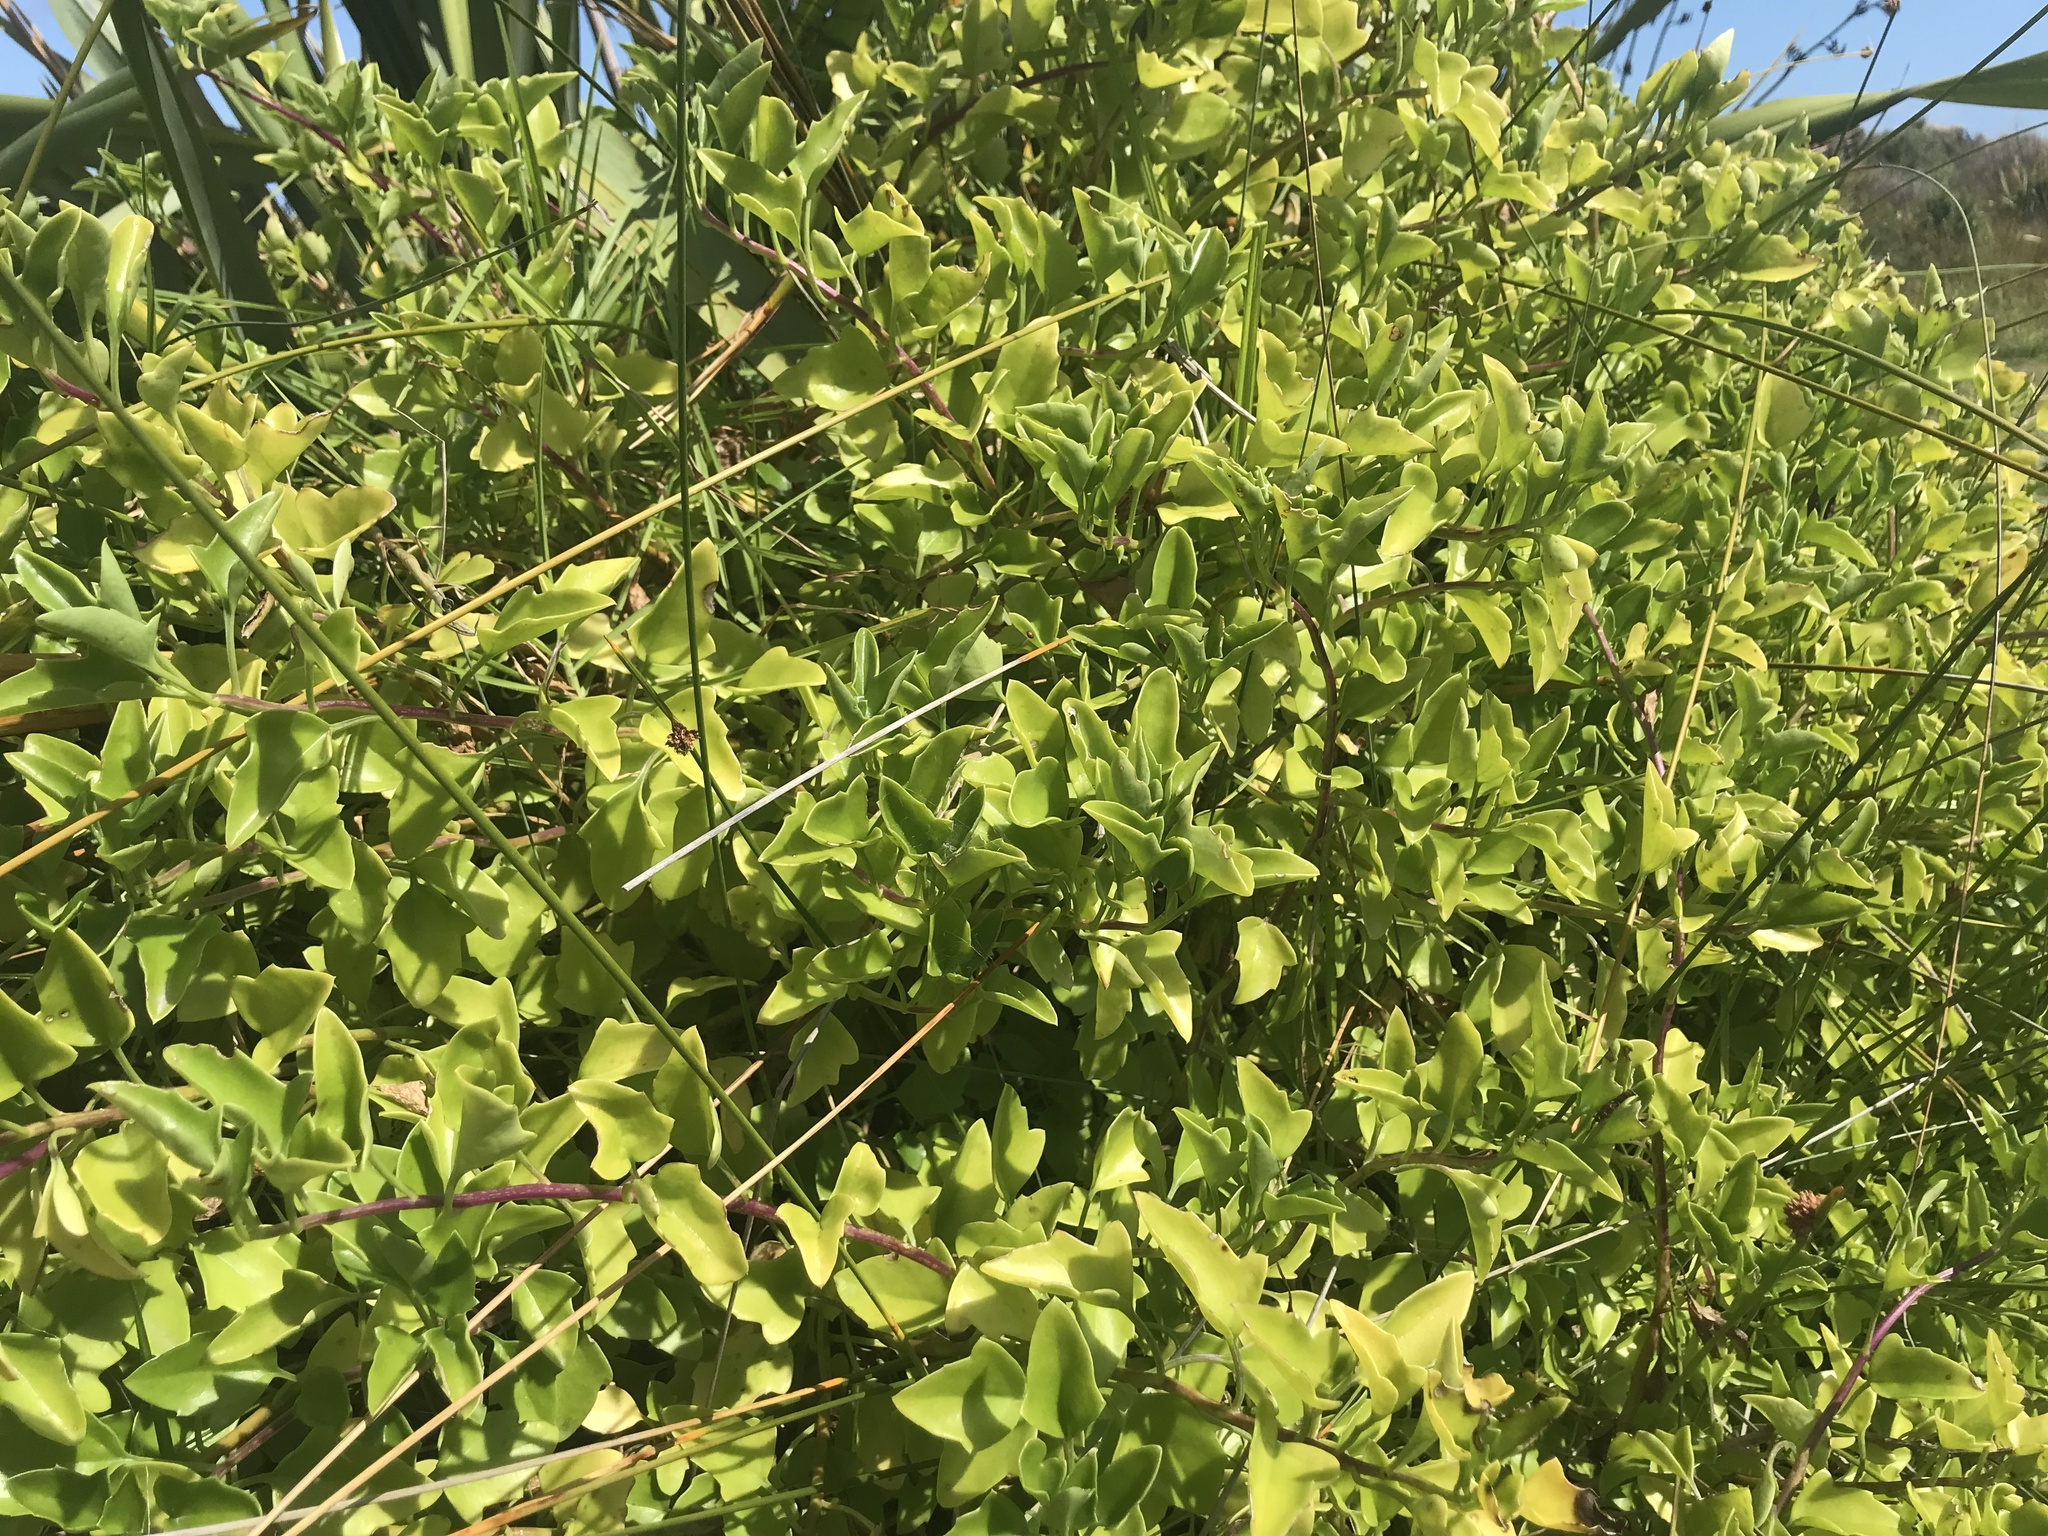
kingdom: Plantae
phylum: Tracheophyta
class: Magnoliopsida
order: Asterales
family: Asteraceae
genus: Senecio
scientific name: Senecio angulatus
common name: Climbing groundsel
